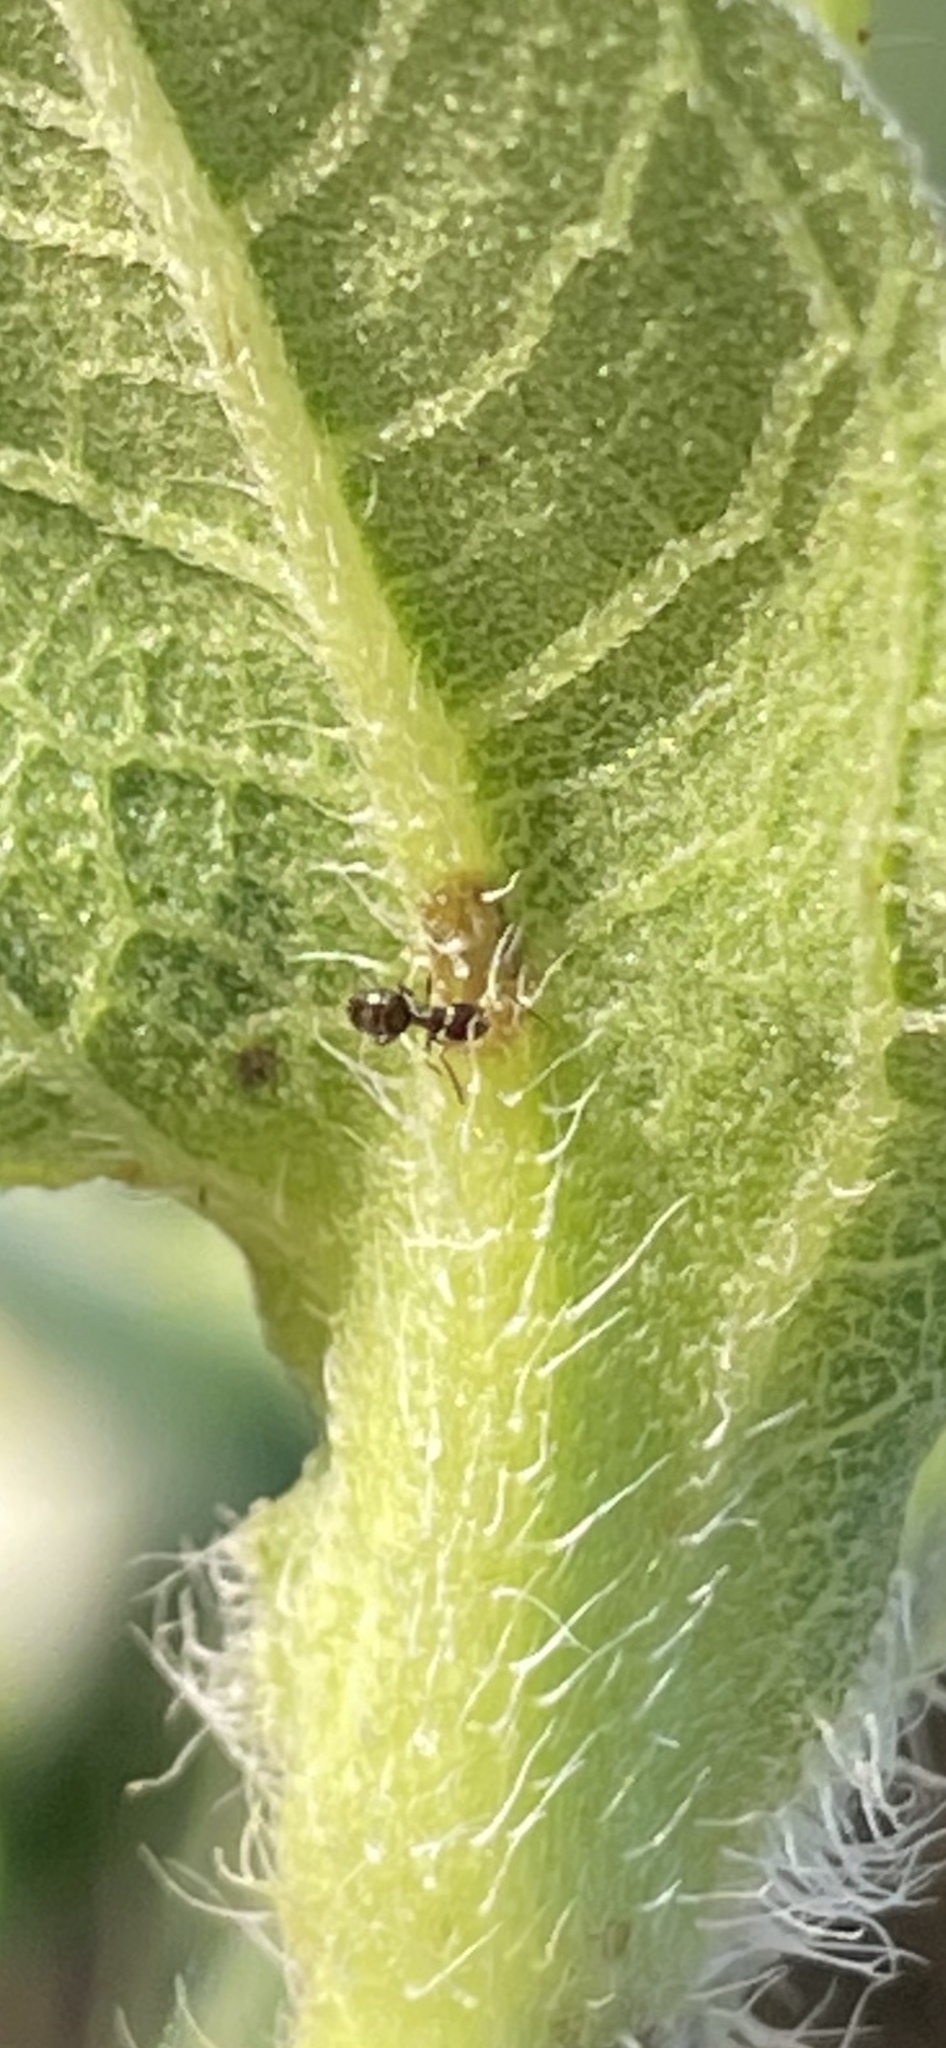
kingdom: Animalia
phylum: Arthropoda
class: Insecta
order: Hymenoptera
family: Formicidae
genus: Brachymyrmex
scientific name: Brachymyrmex patagonicus
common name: Dark rover ant
